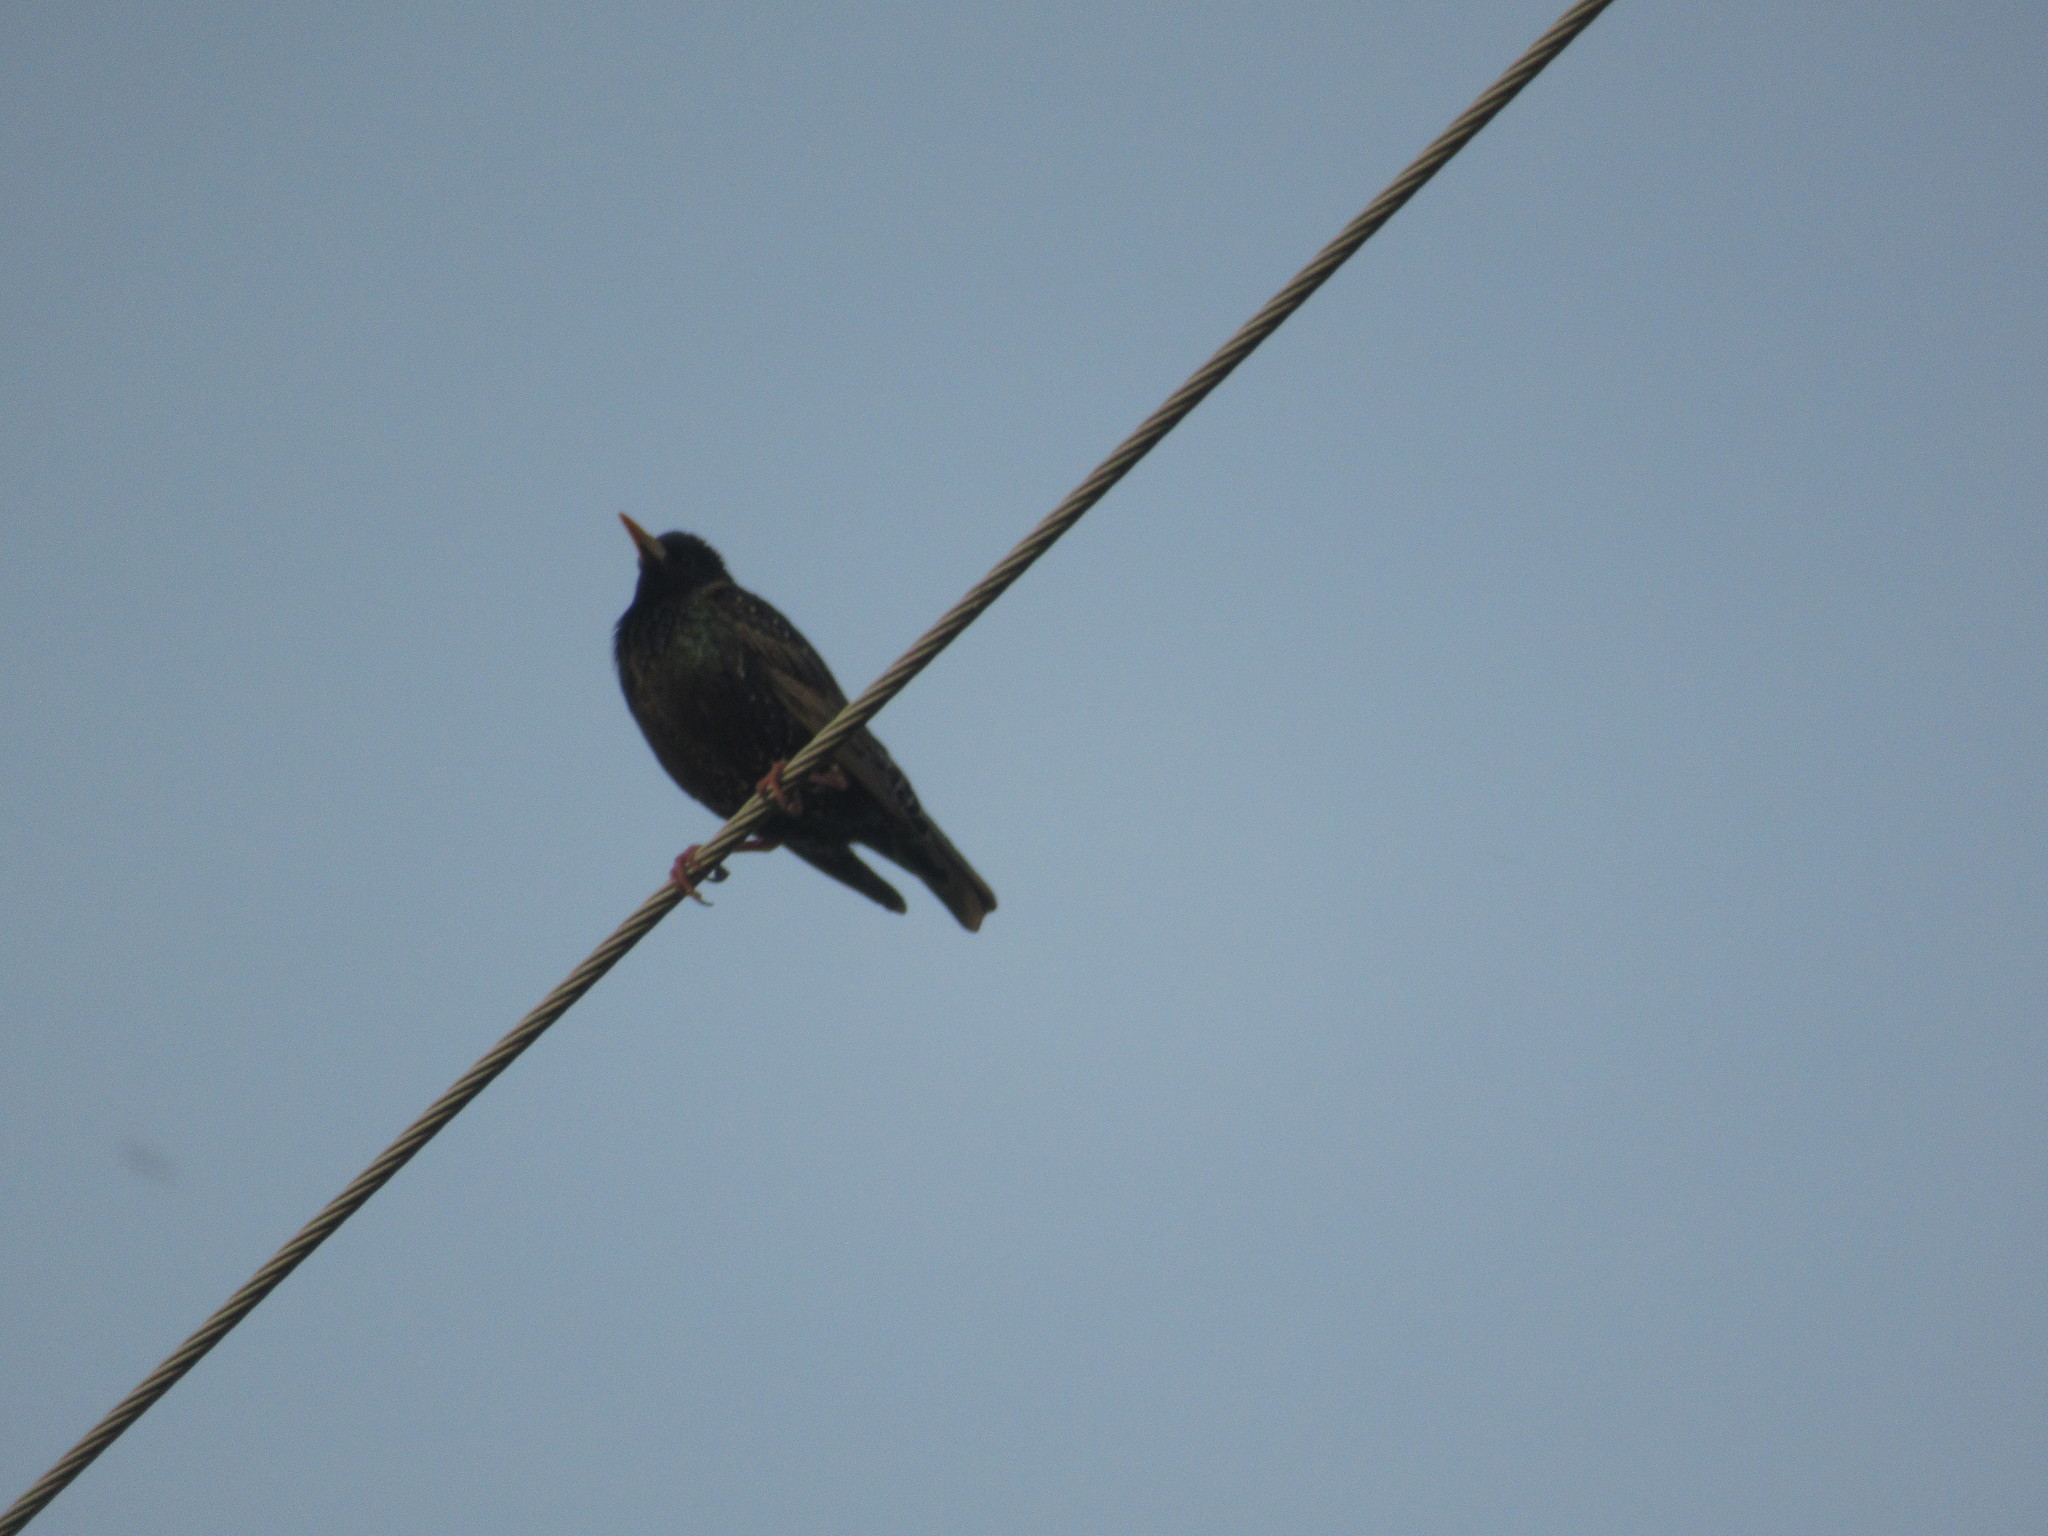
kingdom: Animalia
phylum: Chordata
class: Aves
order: Passeriformes
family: Sturnidae
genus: Sturnus
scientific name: Sturnus vulgaris
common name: Common starling
